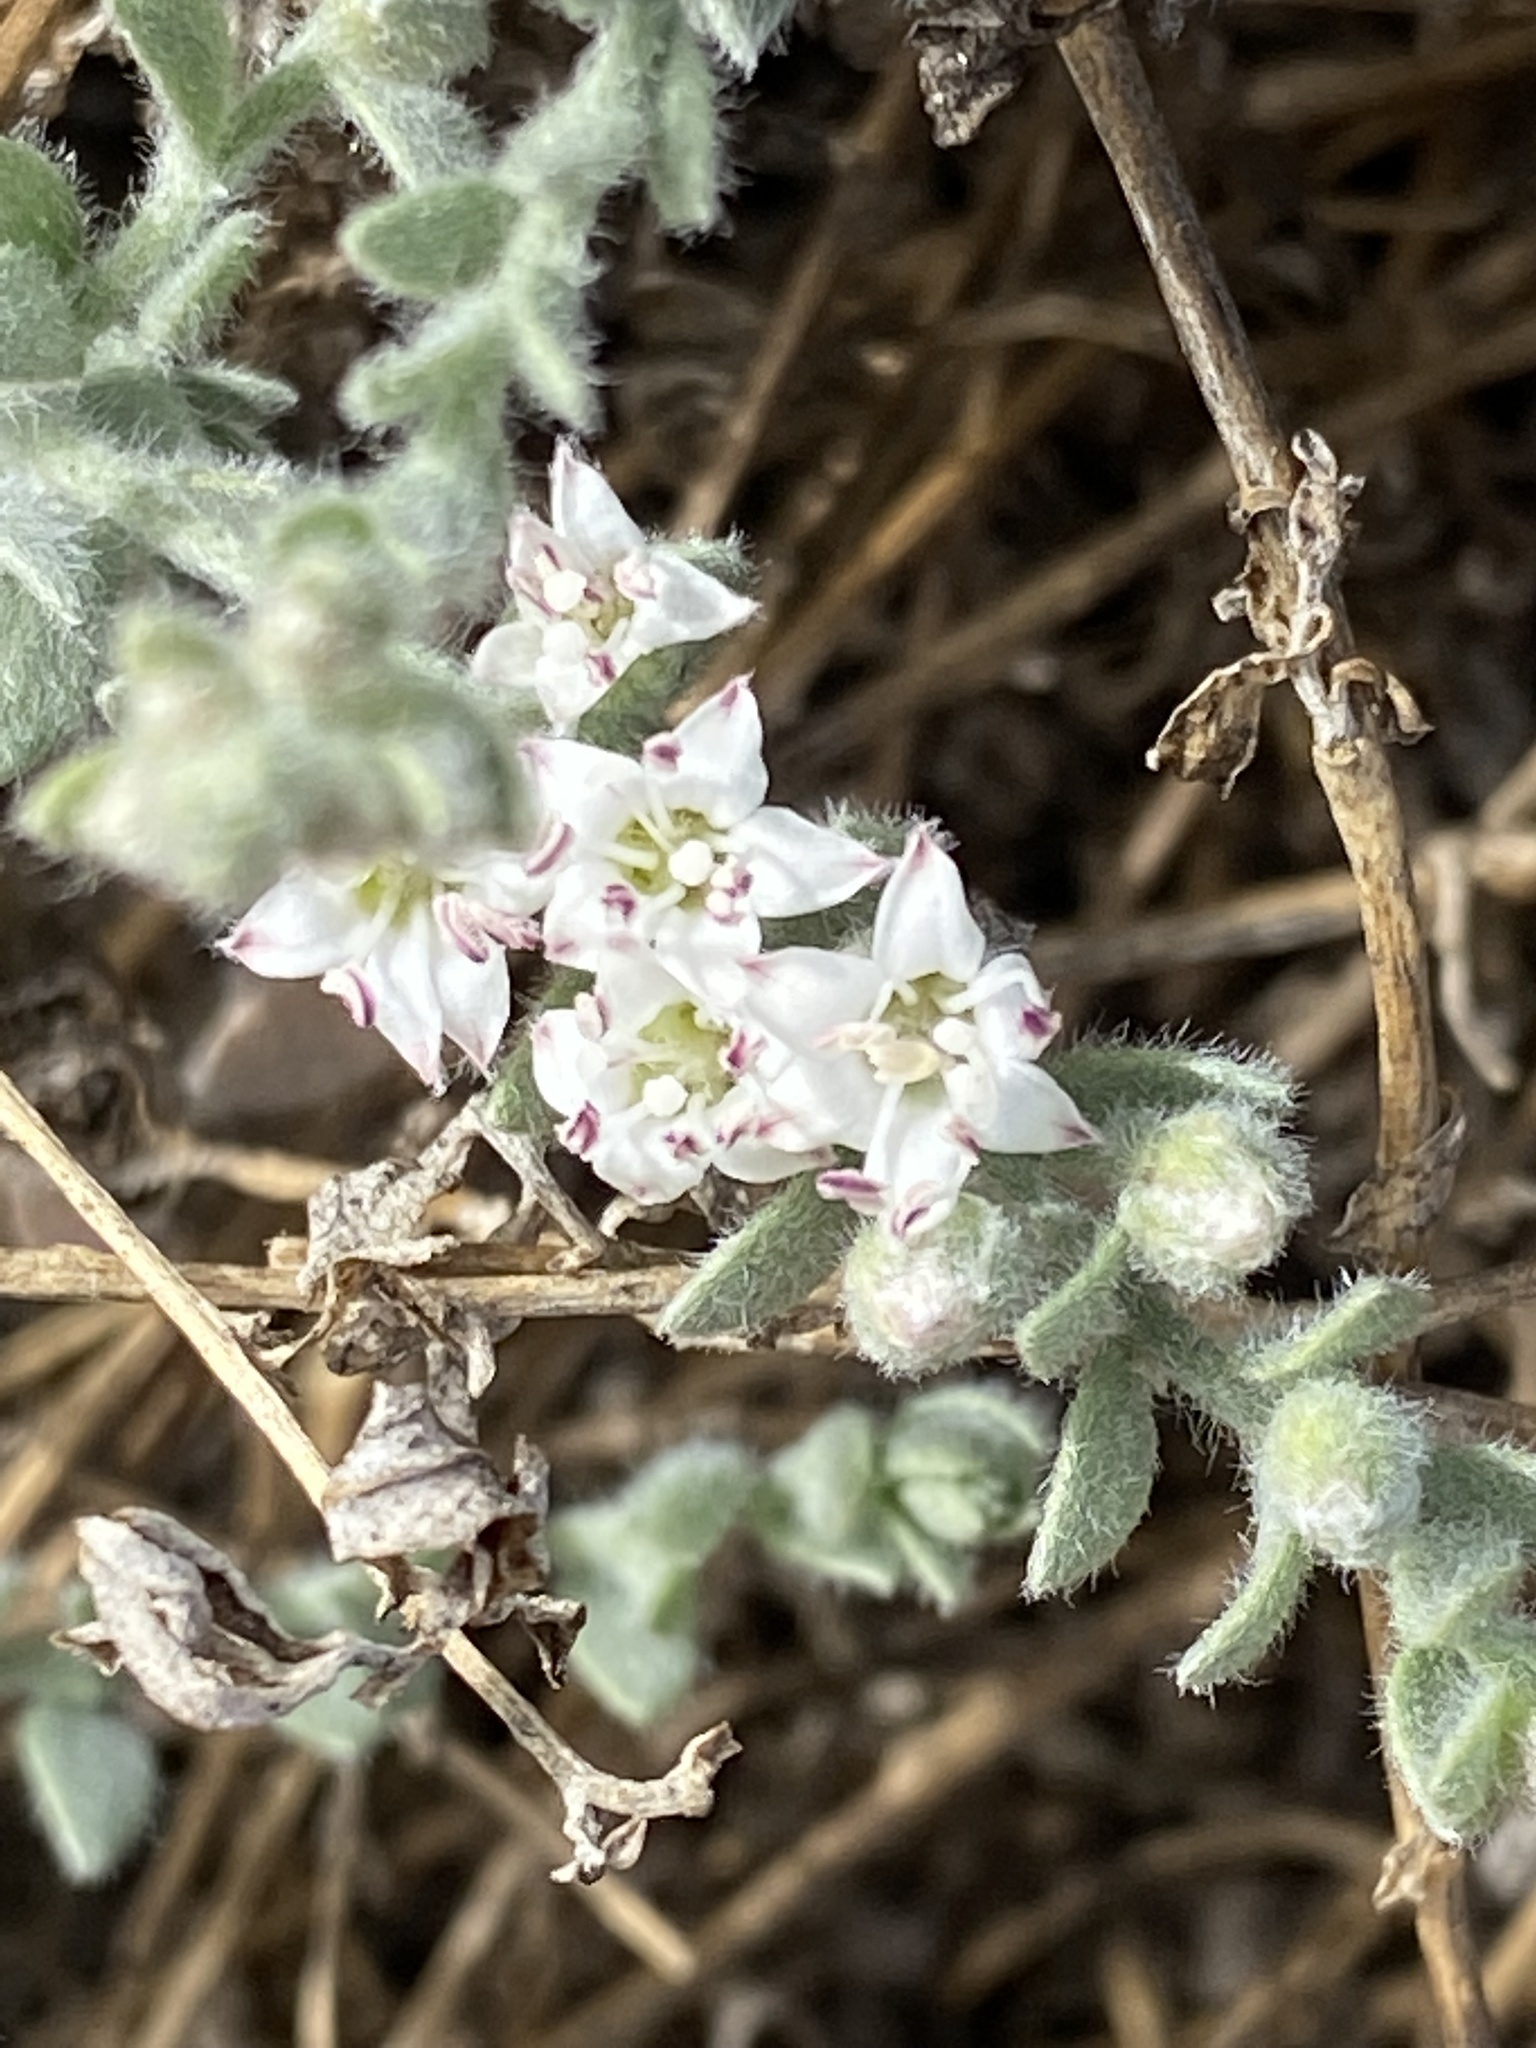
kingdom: Plantae
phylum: Tracheophyta
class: Magnoliopsida
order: Solanales
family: Convolvulaceae
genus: Cressa
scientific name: Cressa truxillensis
